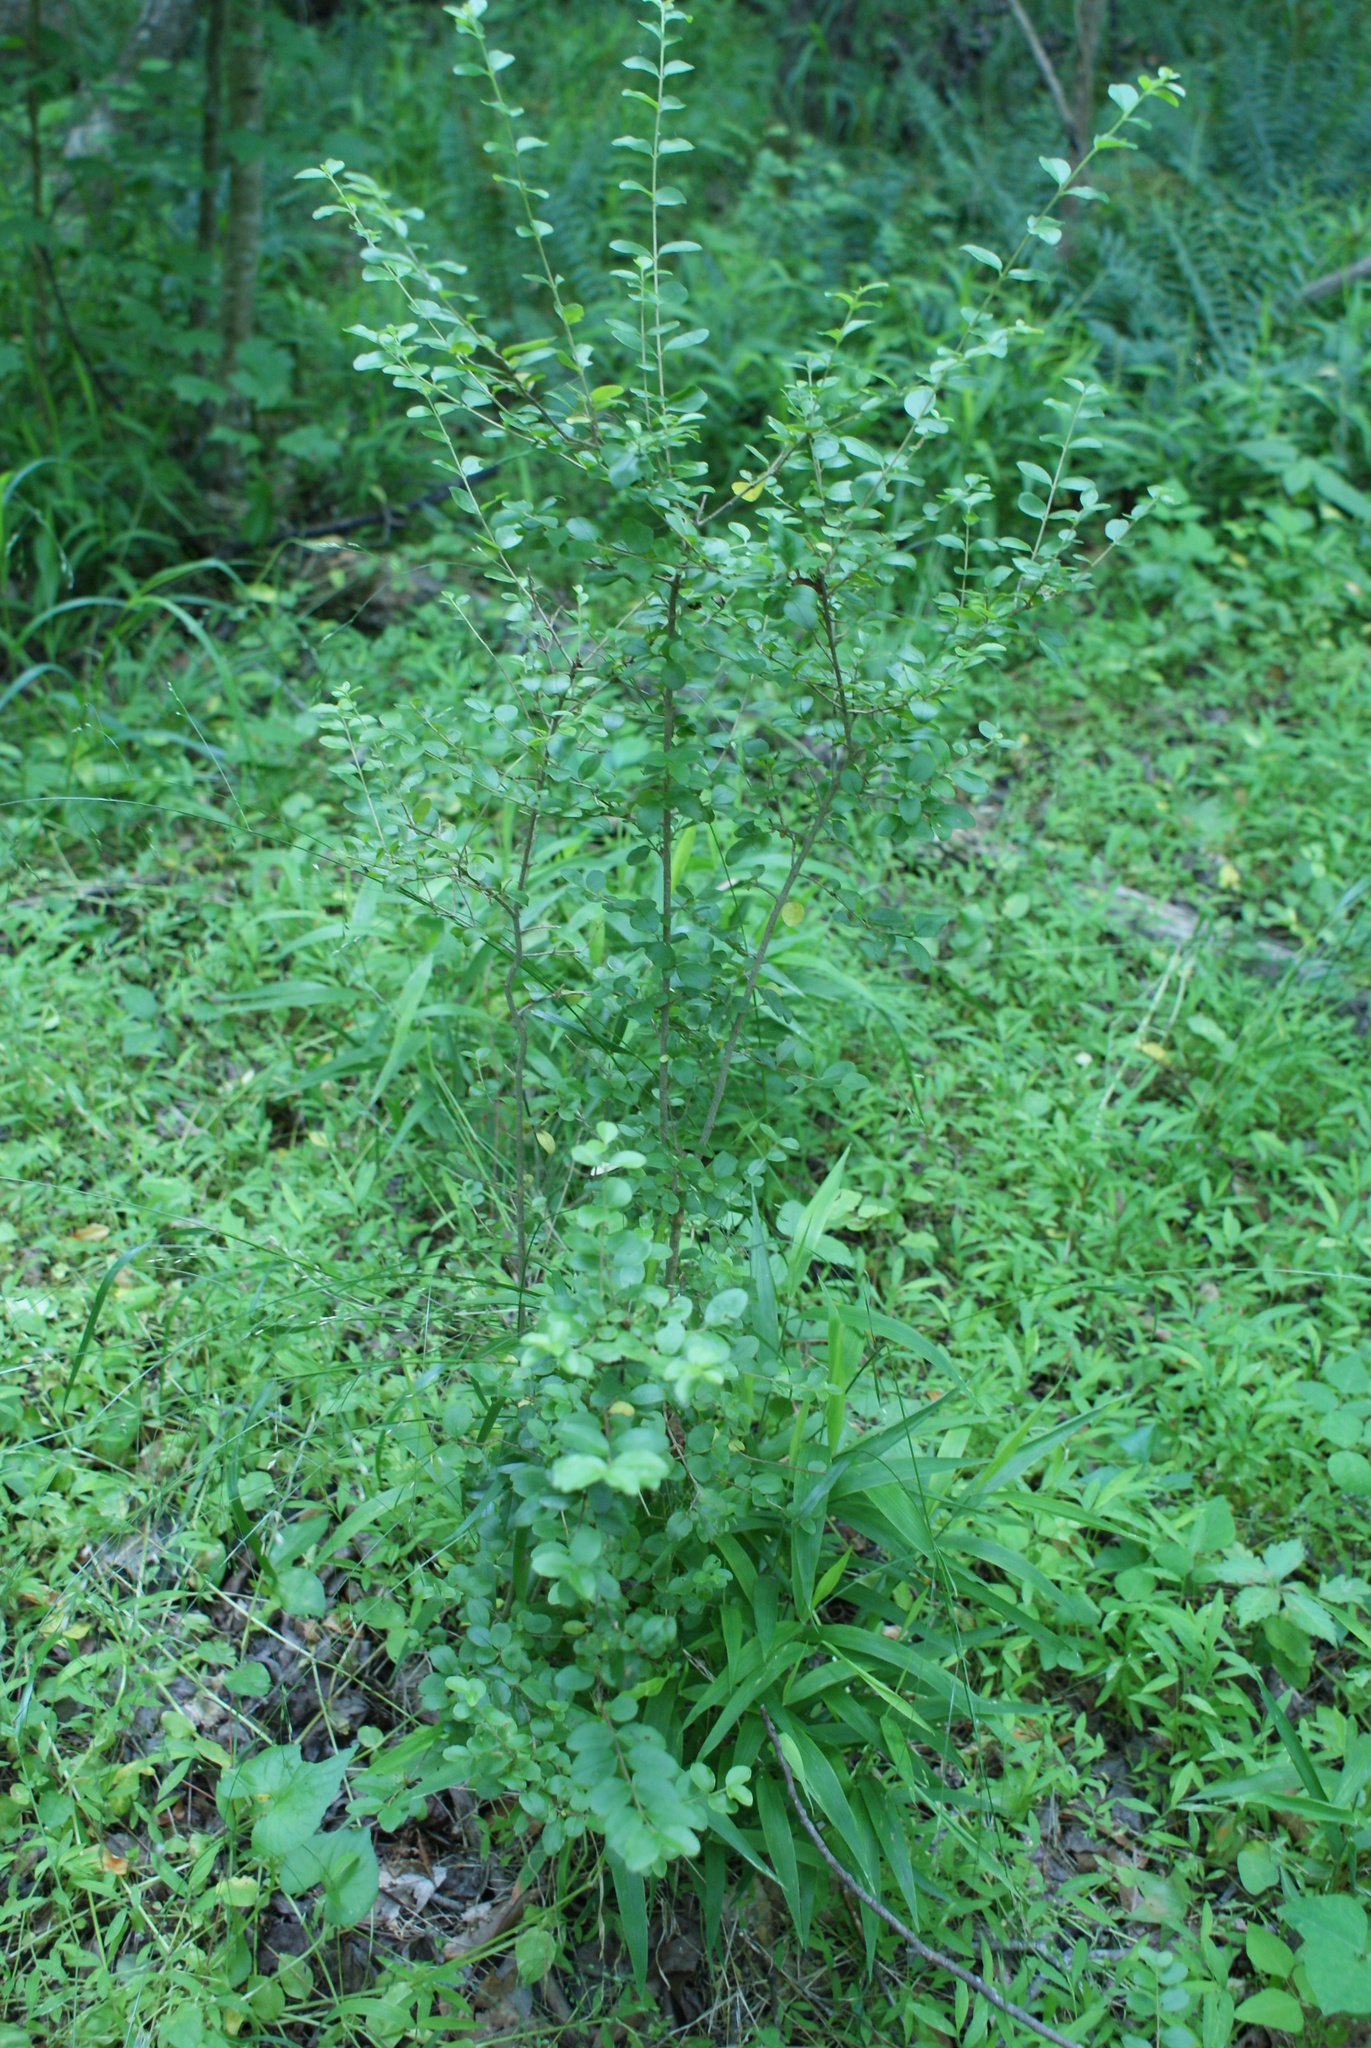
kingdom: Plantae
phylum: Tracheophyta
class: Magnoliopsida
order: Lamiales
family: Oleaceae
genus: Ligustrum
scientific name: Ligustrum sinense
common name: Chinese privet
